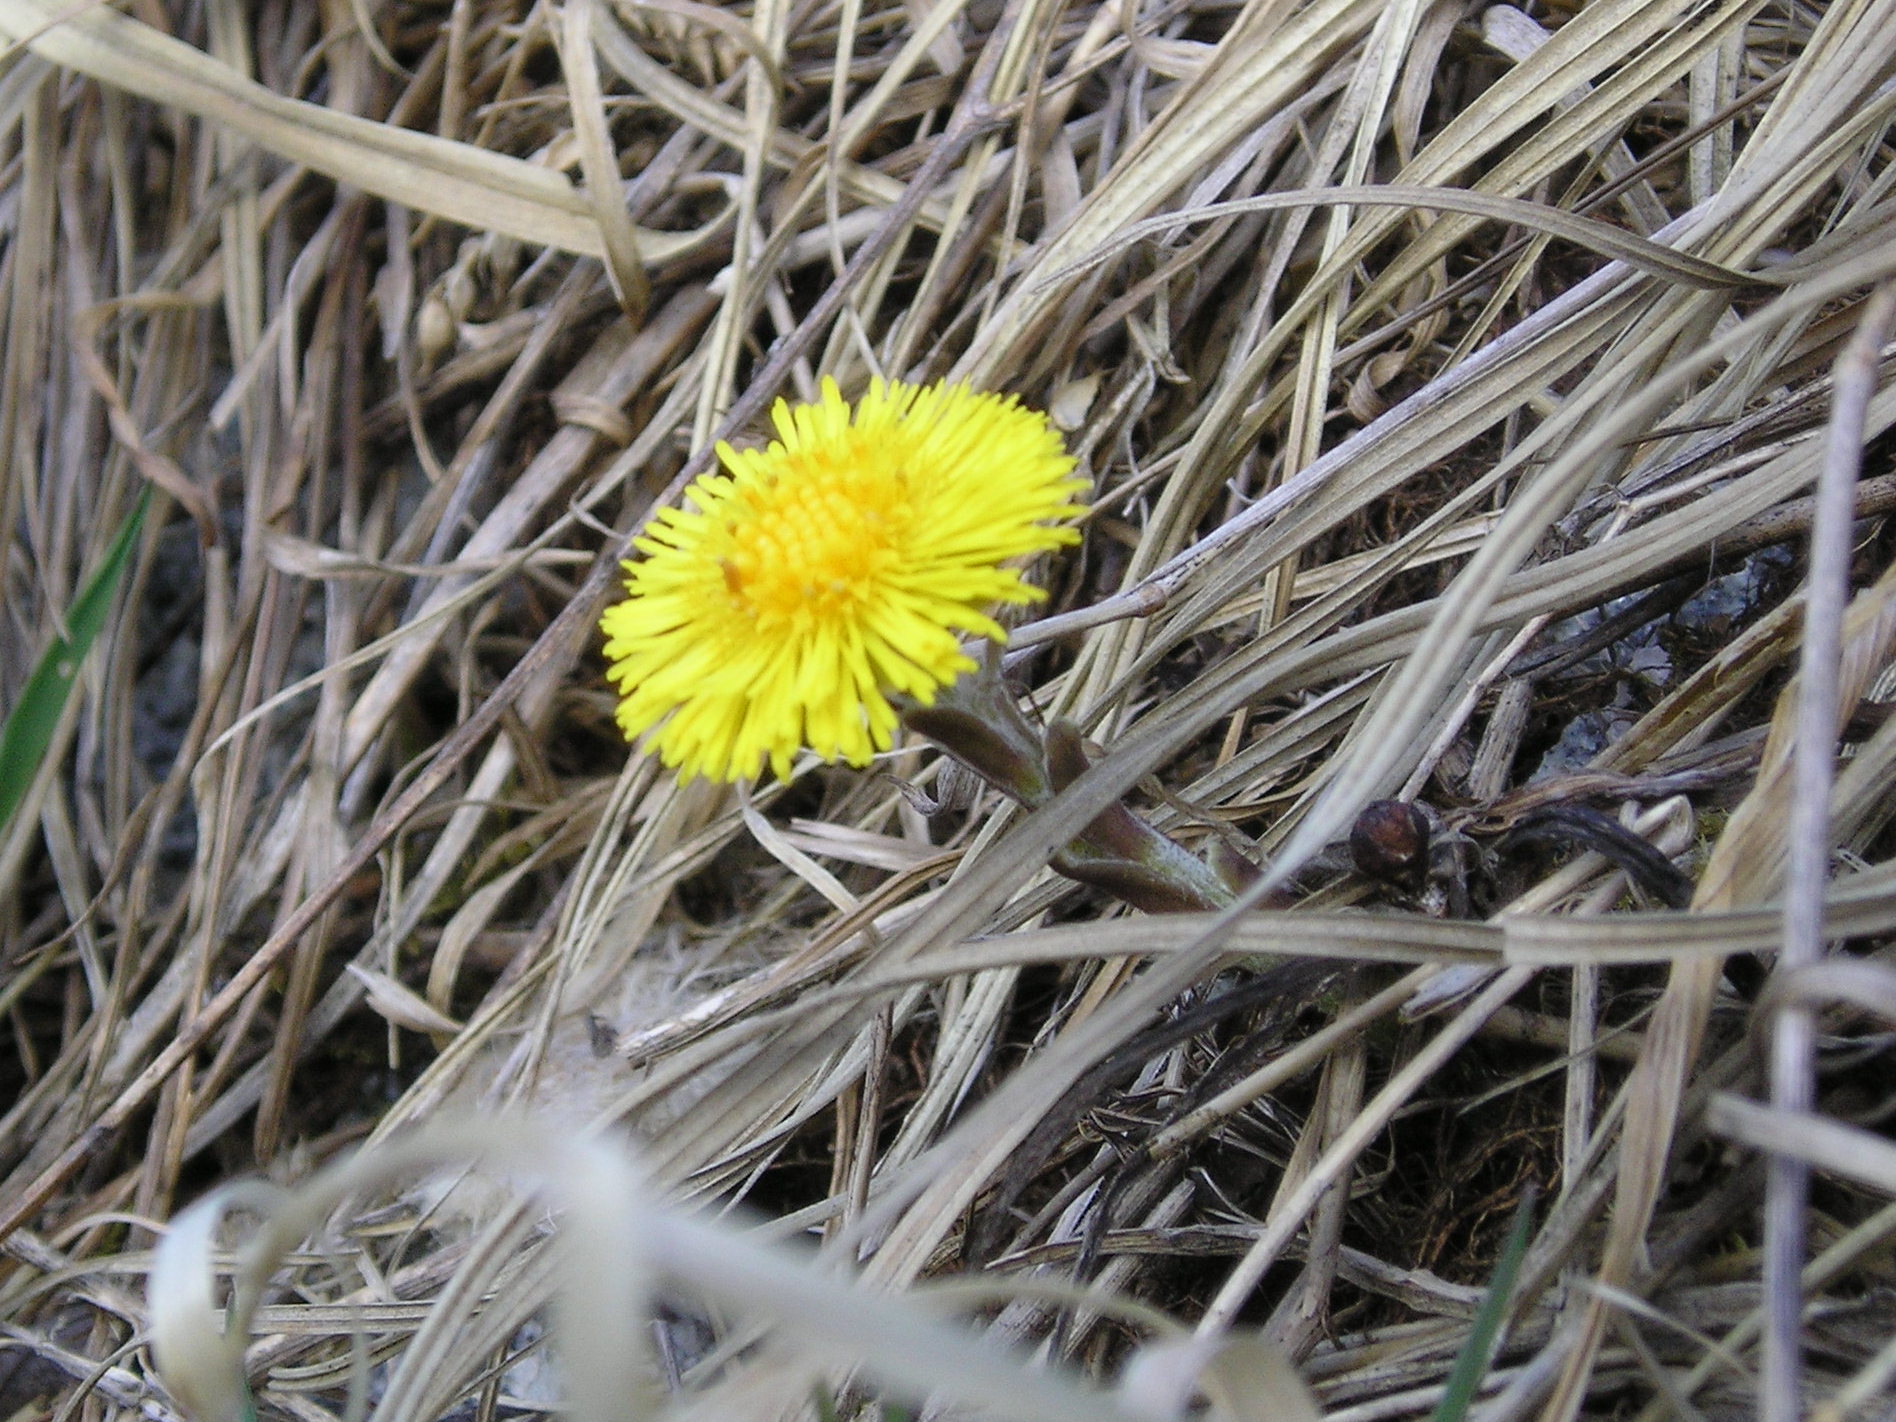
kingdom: Plantae
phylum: Tracheophyta
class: Magnoliopsida
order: Asterales
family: Asteraceae
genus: Tussilago
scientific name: Tussilago farfara
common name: Coltsfoot
